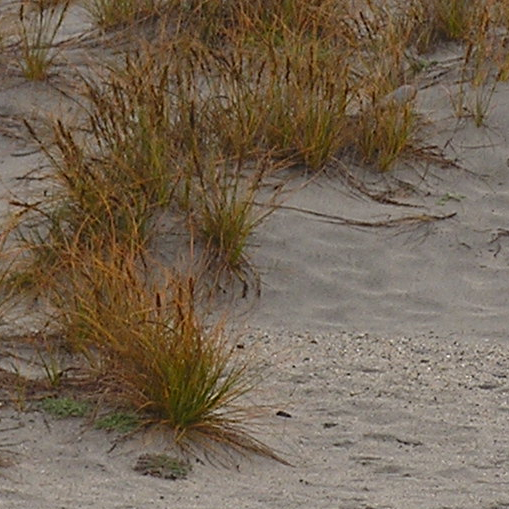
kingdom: Plantae
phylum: Tracheophyta
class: Liliopsida
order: Poales
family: Cyperaceae
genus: Ficinia
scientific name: Ficinia spiralis
